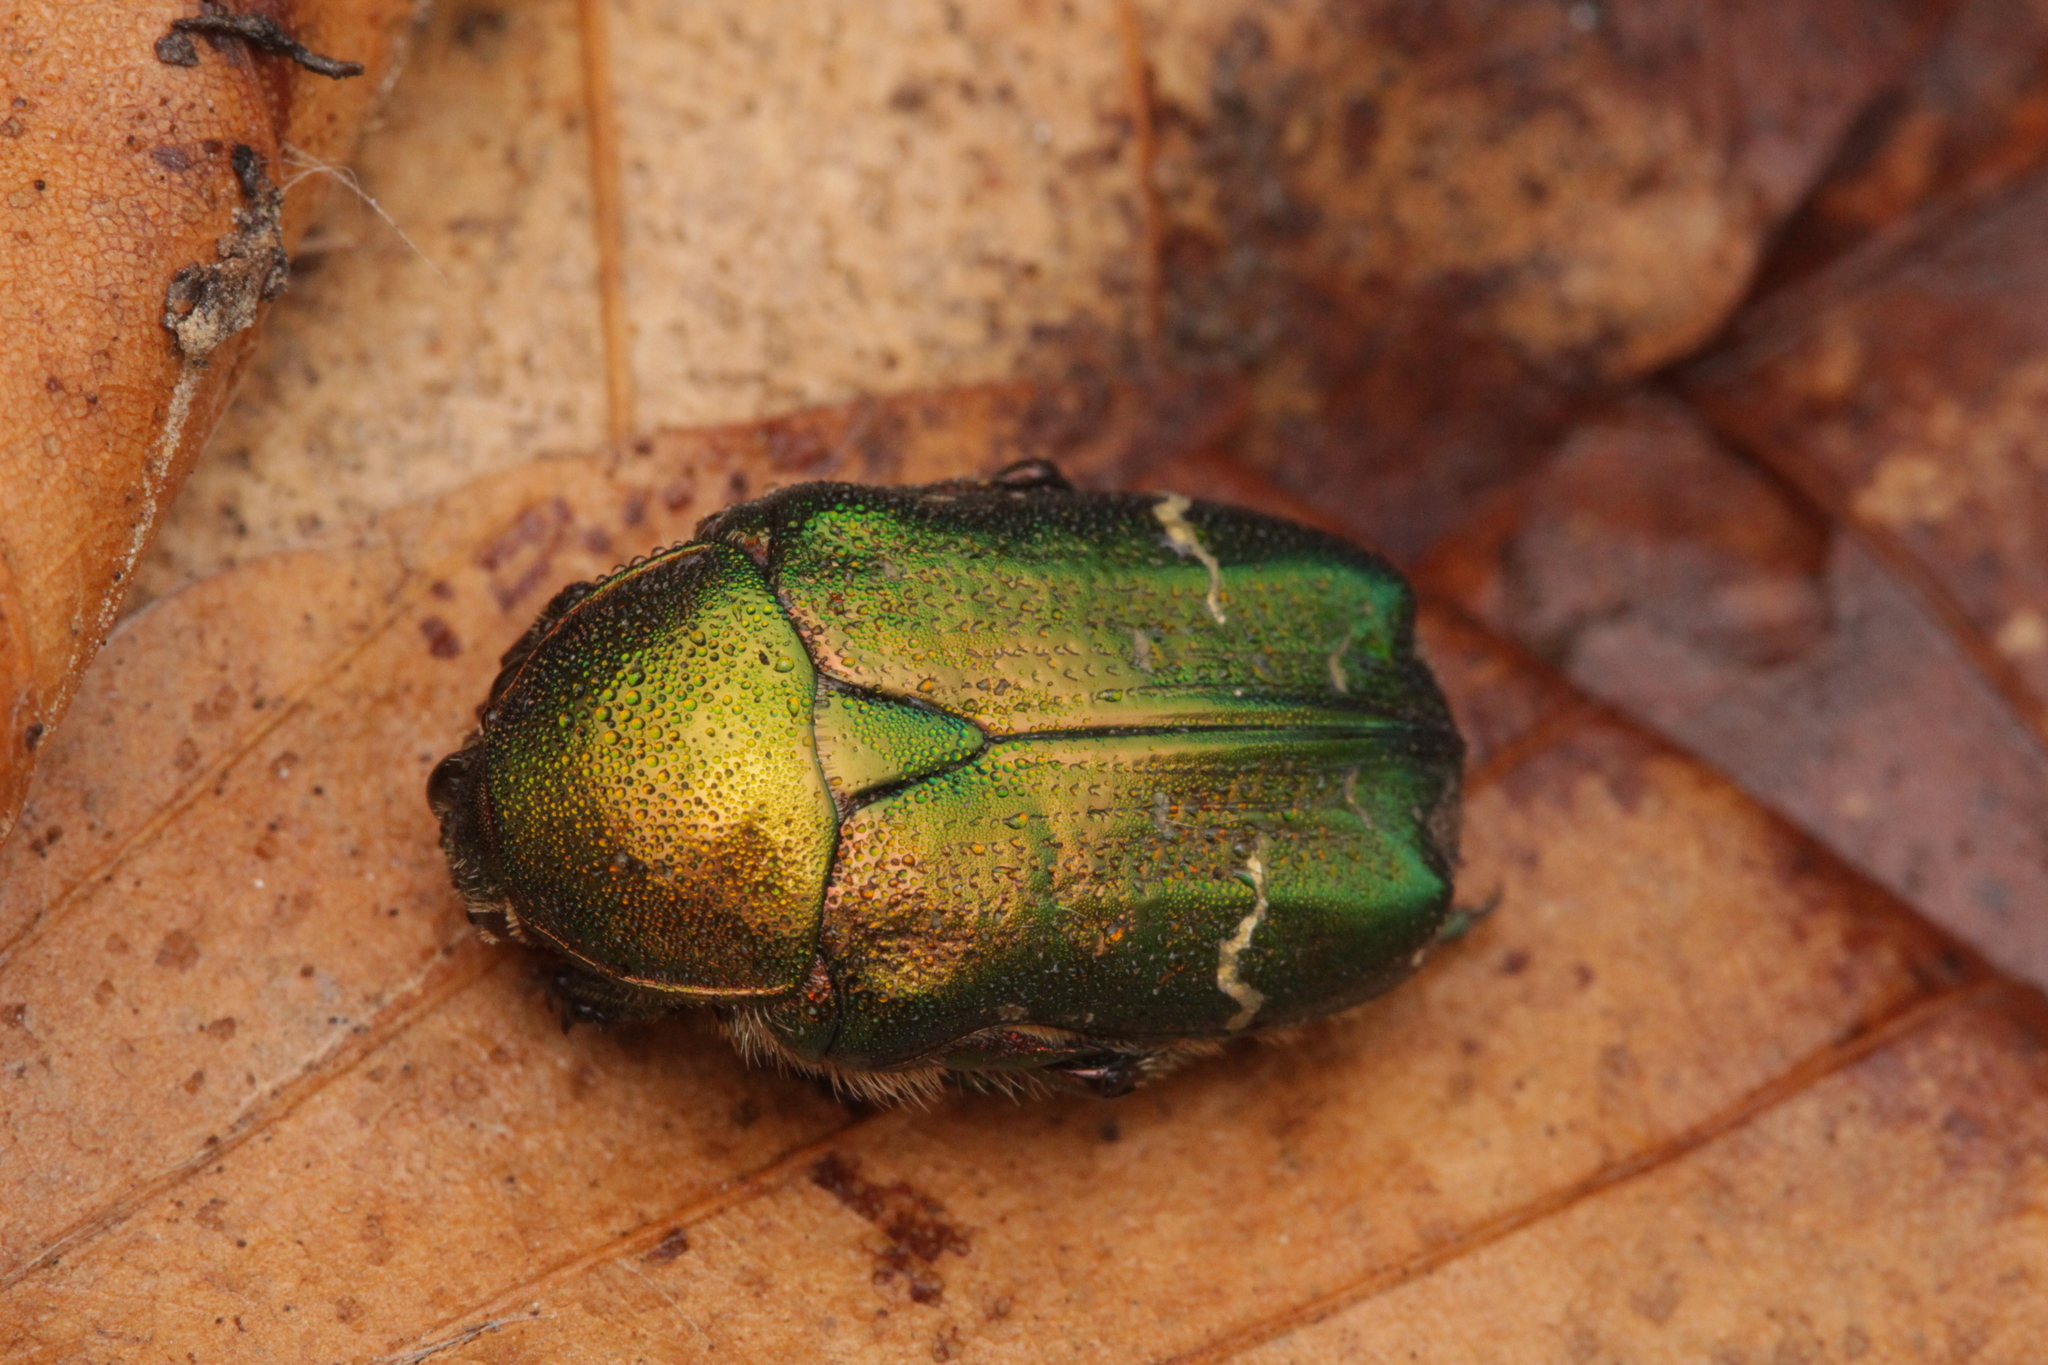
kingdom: Animalia
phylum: Arthropoda
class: Insecta
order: Coleoptera
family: Scarabaeidae
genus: Cetonia
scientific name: Cetonia aurata
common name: Rose chafer
